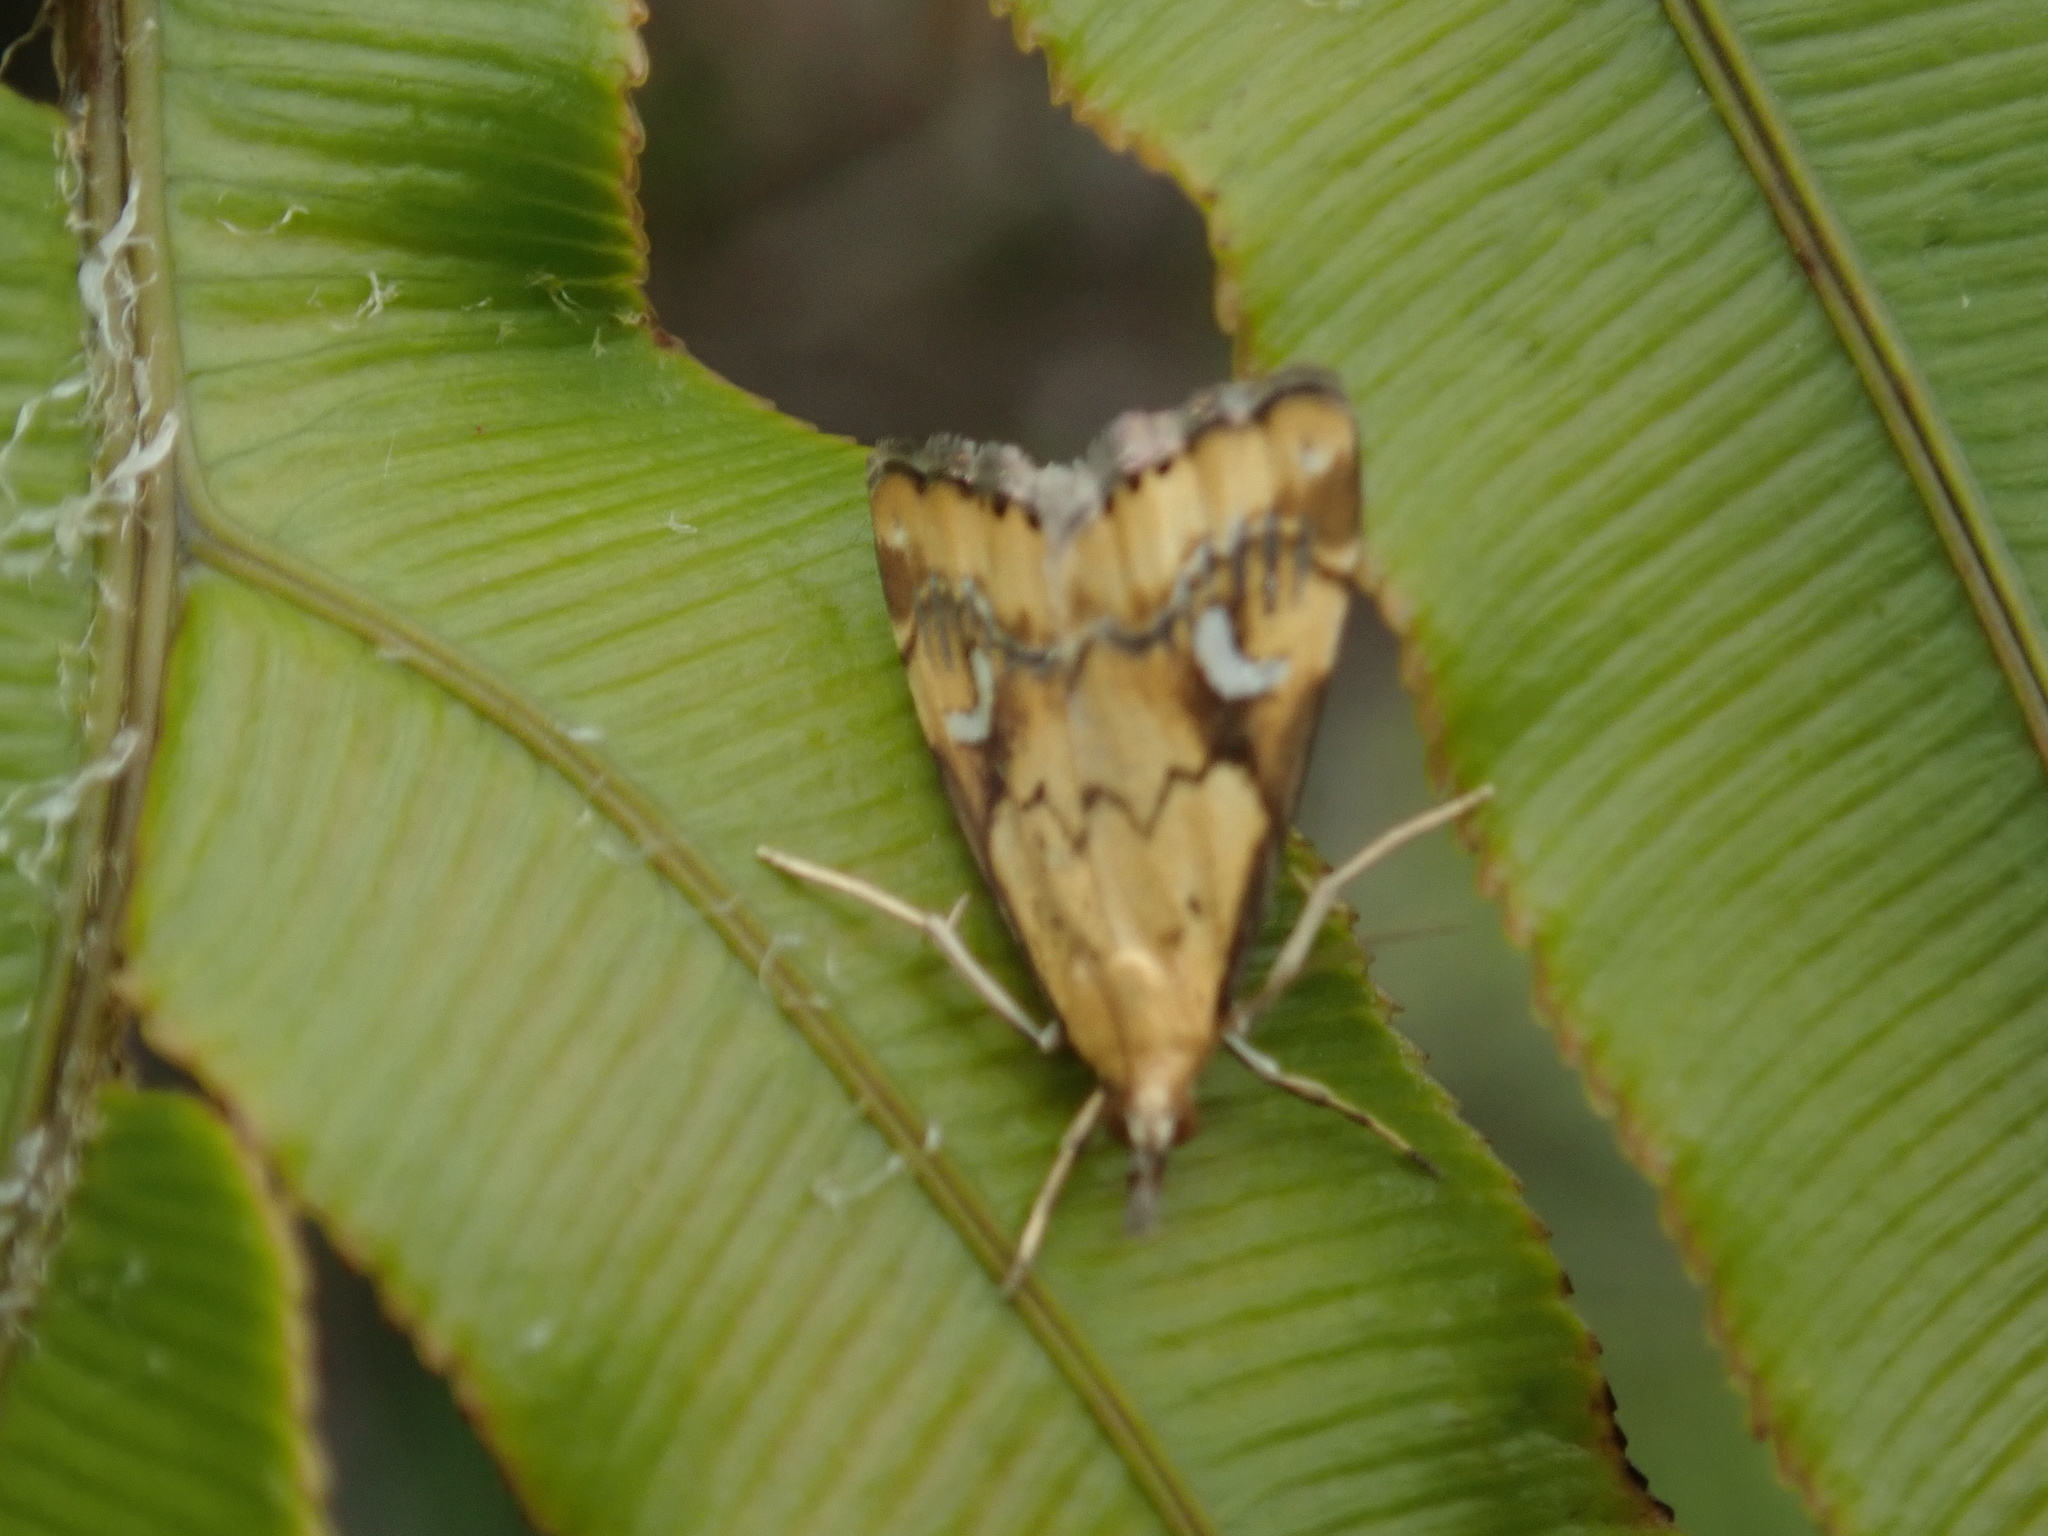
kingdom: Animalia
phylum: Arthropoda
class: Insecta
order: Lepidoptera
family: Crambidae
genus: Glaucocharis
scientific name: Glaucocharis lepidella
